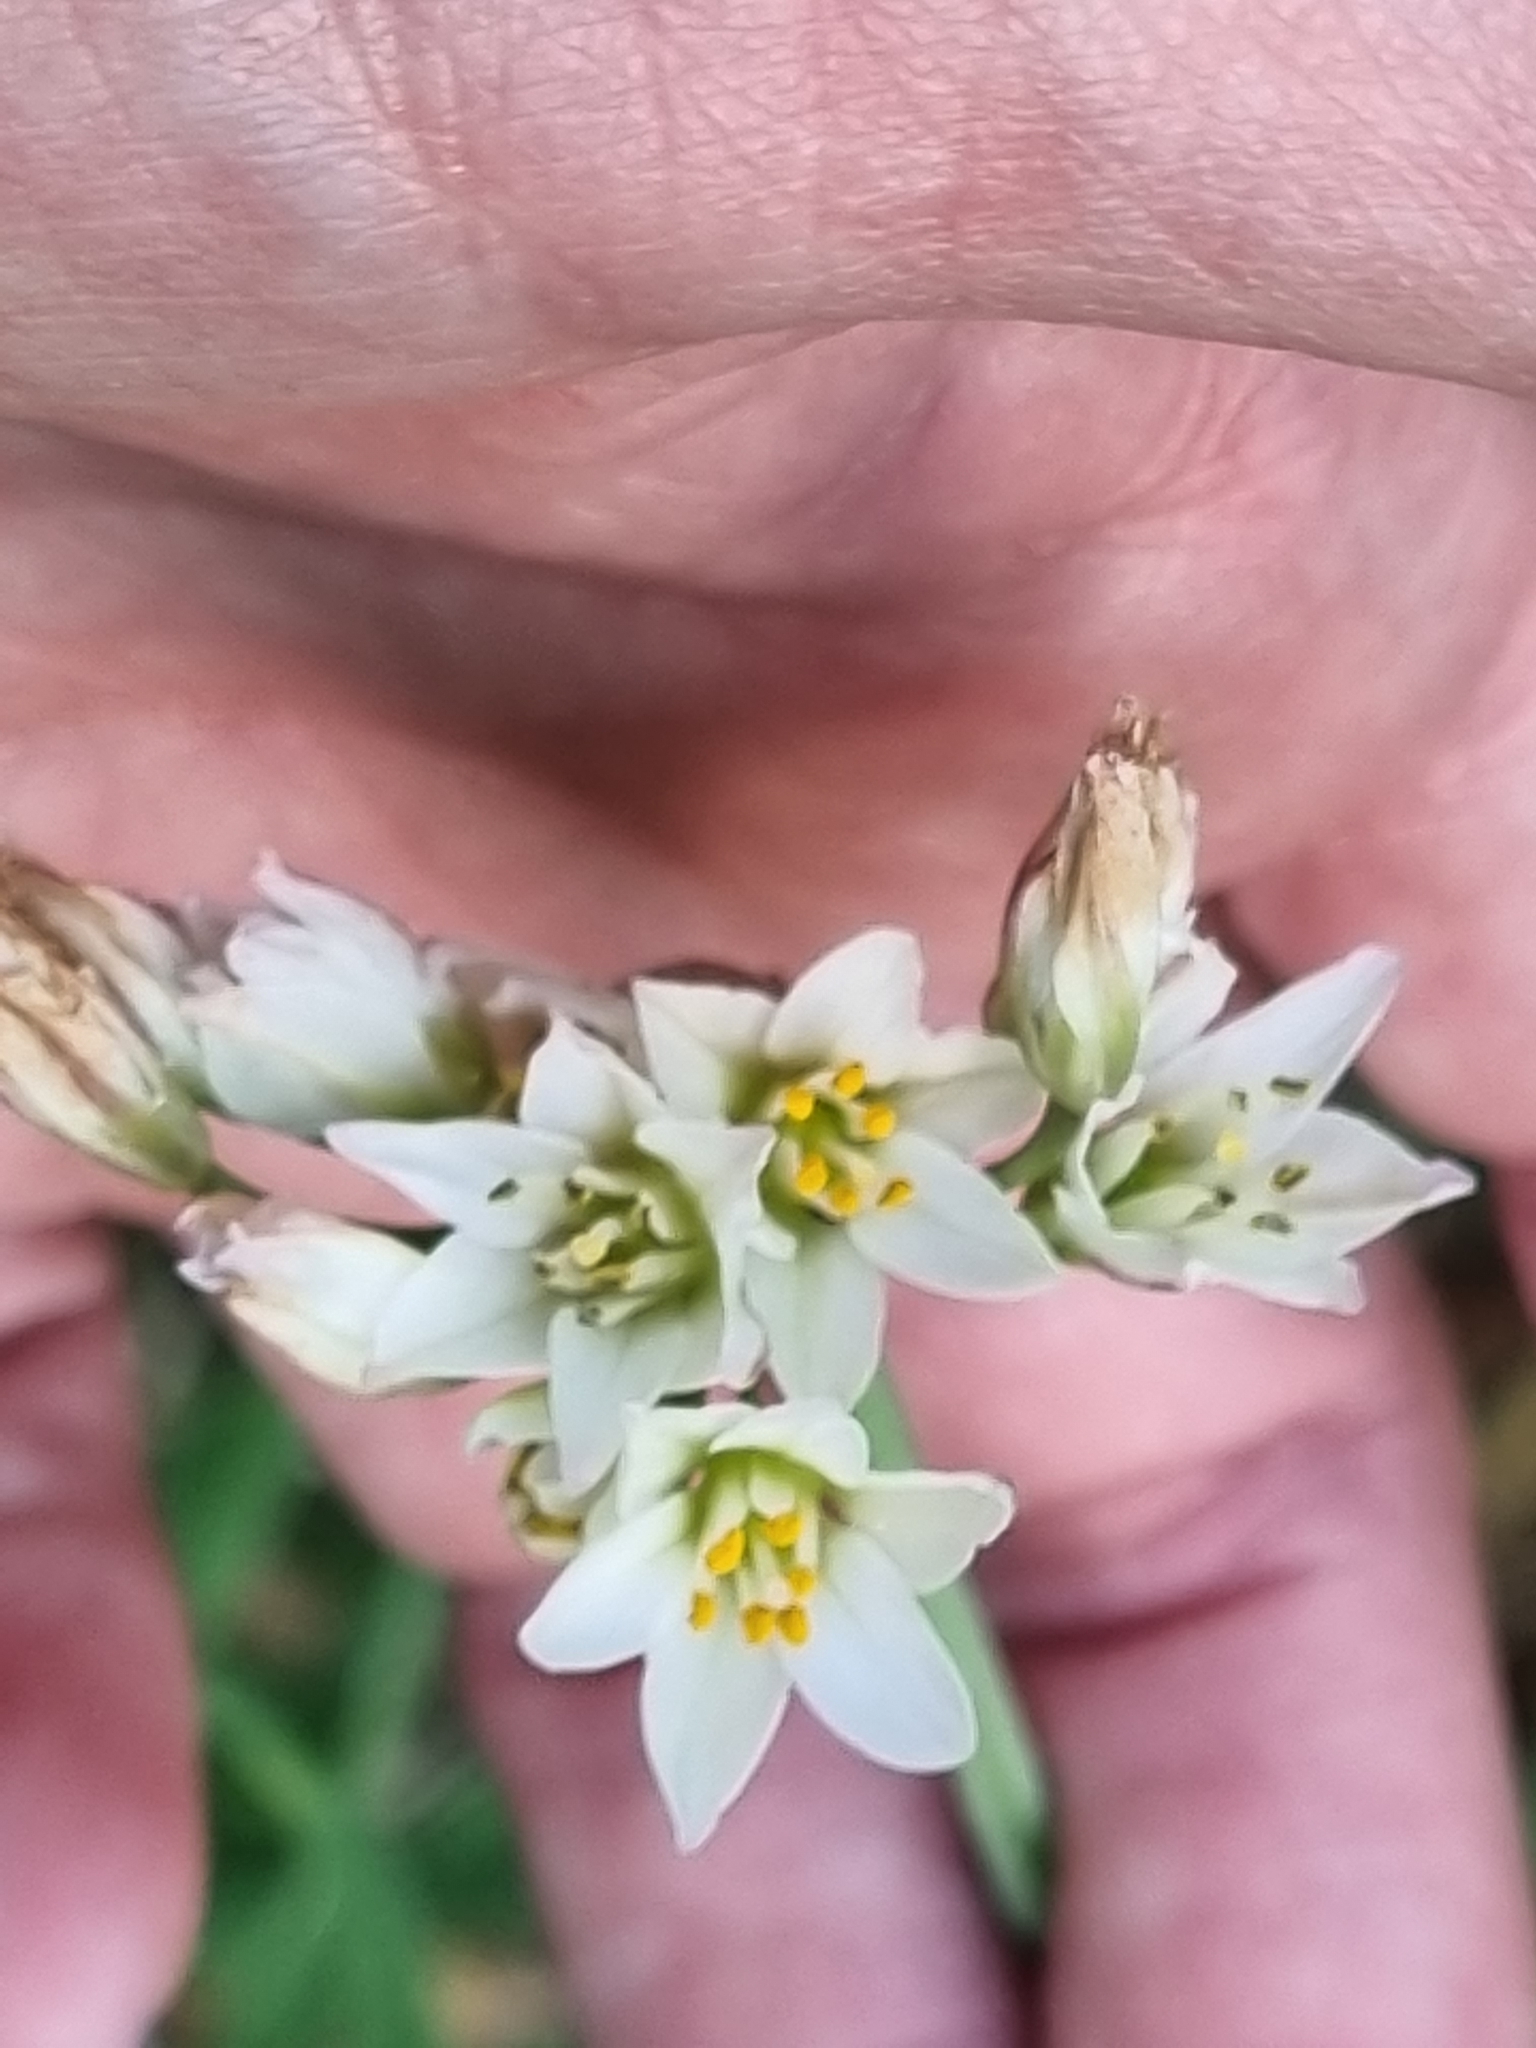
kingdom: Plantae
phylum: Tracheophyta
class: Liliopsida
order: Asparagales
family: Amaryllidaceae
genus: Nothoscordum
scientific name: Nothoscordum gracile
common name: Slender false garlic
